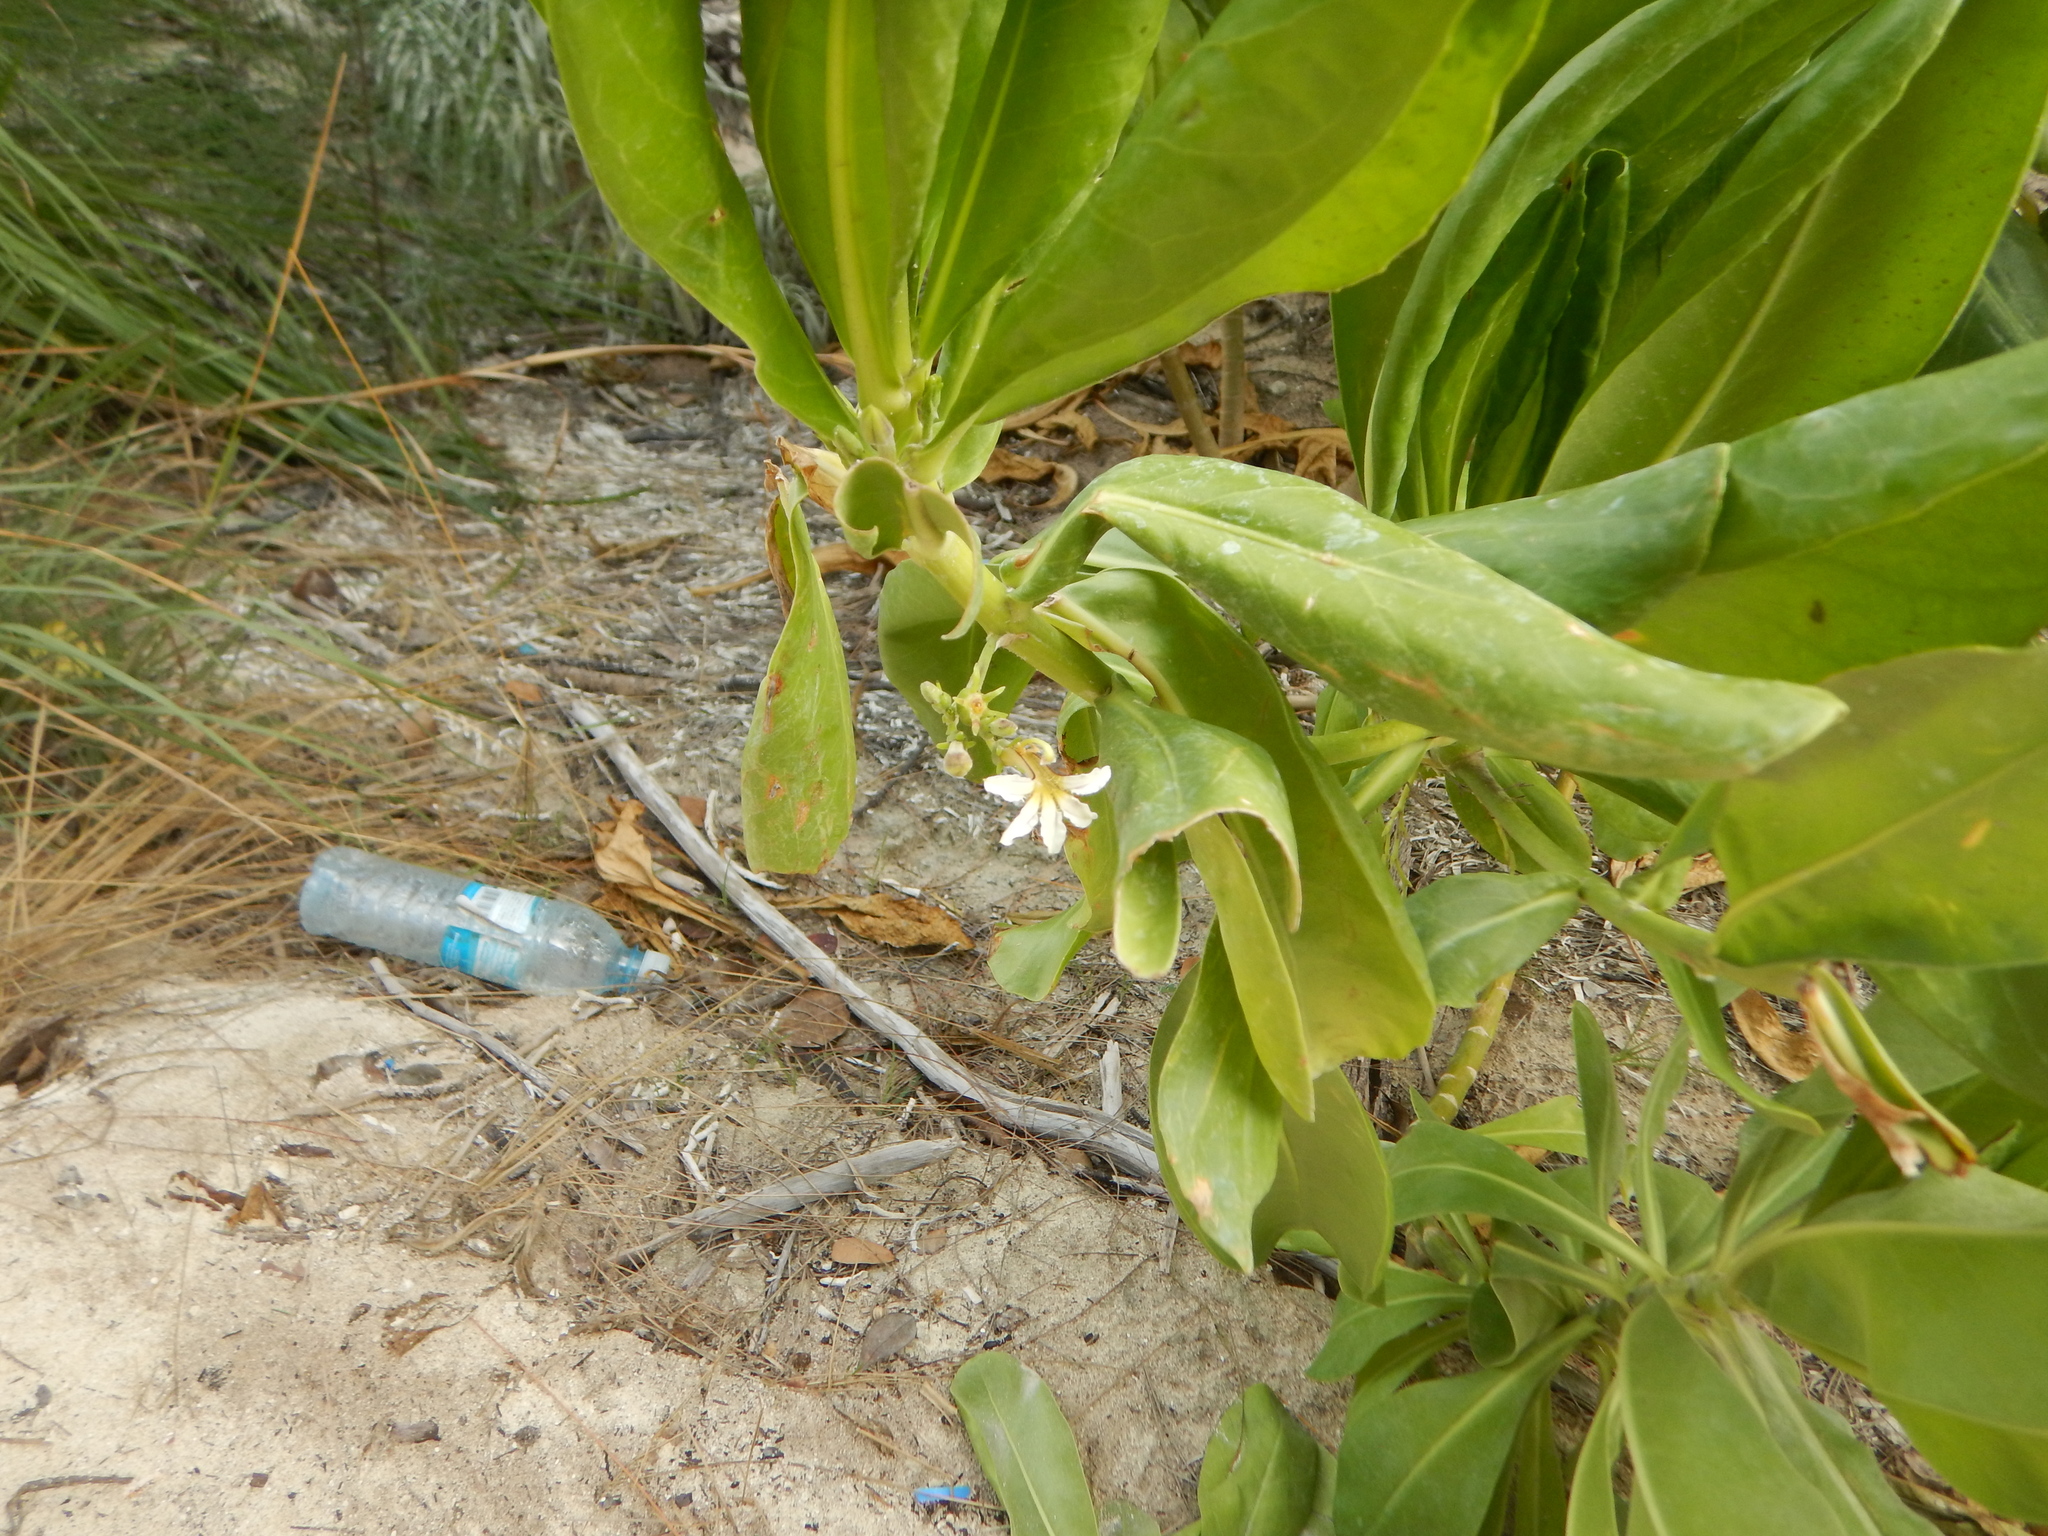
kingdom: Plantae
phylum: Tracheophyta
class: Magnoliopsida
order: Asterales
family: Goodeniaceae
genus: Scaevola
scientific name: Scaevola taccada
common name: Sea lettucetree
